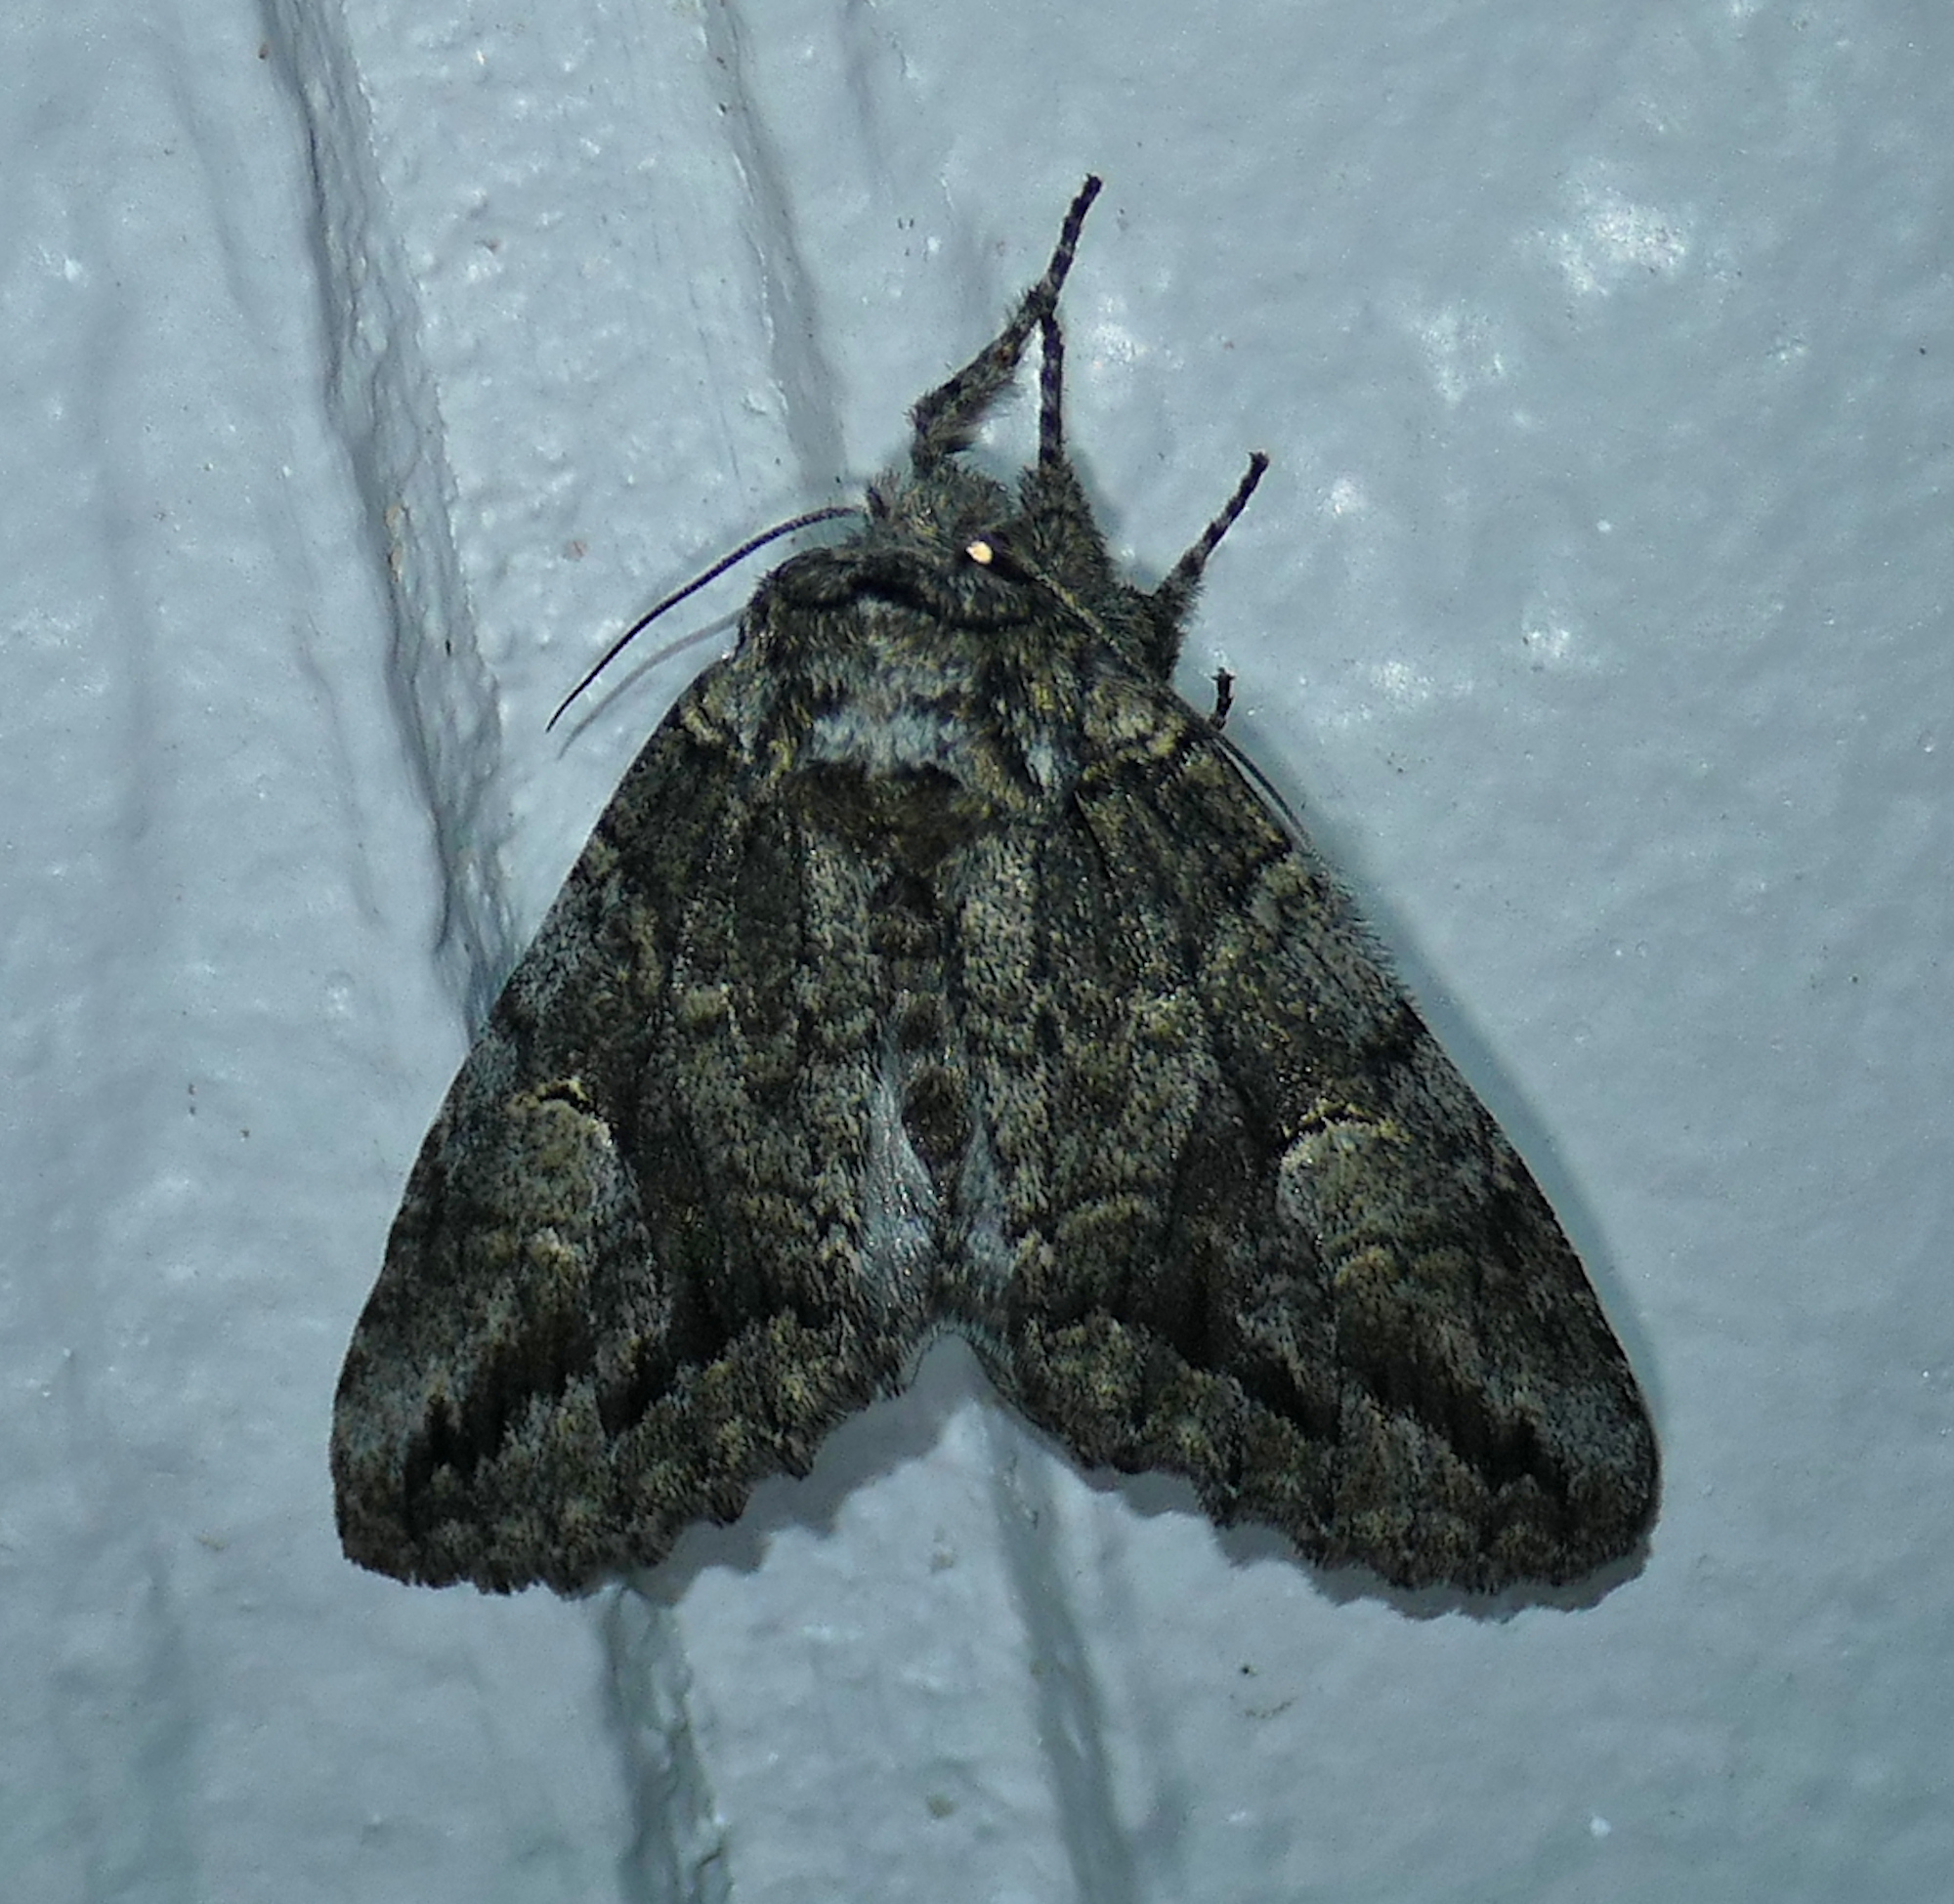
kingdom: Animalia
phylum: Arthropoda
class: Insecta
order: Lepidoptera
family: Notodontidae
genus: Heterocampa
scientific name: Heterocampa averna
